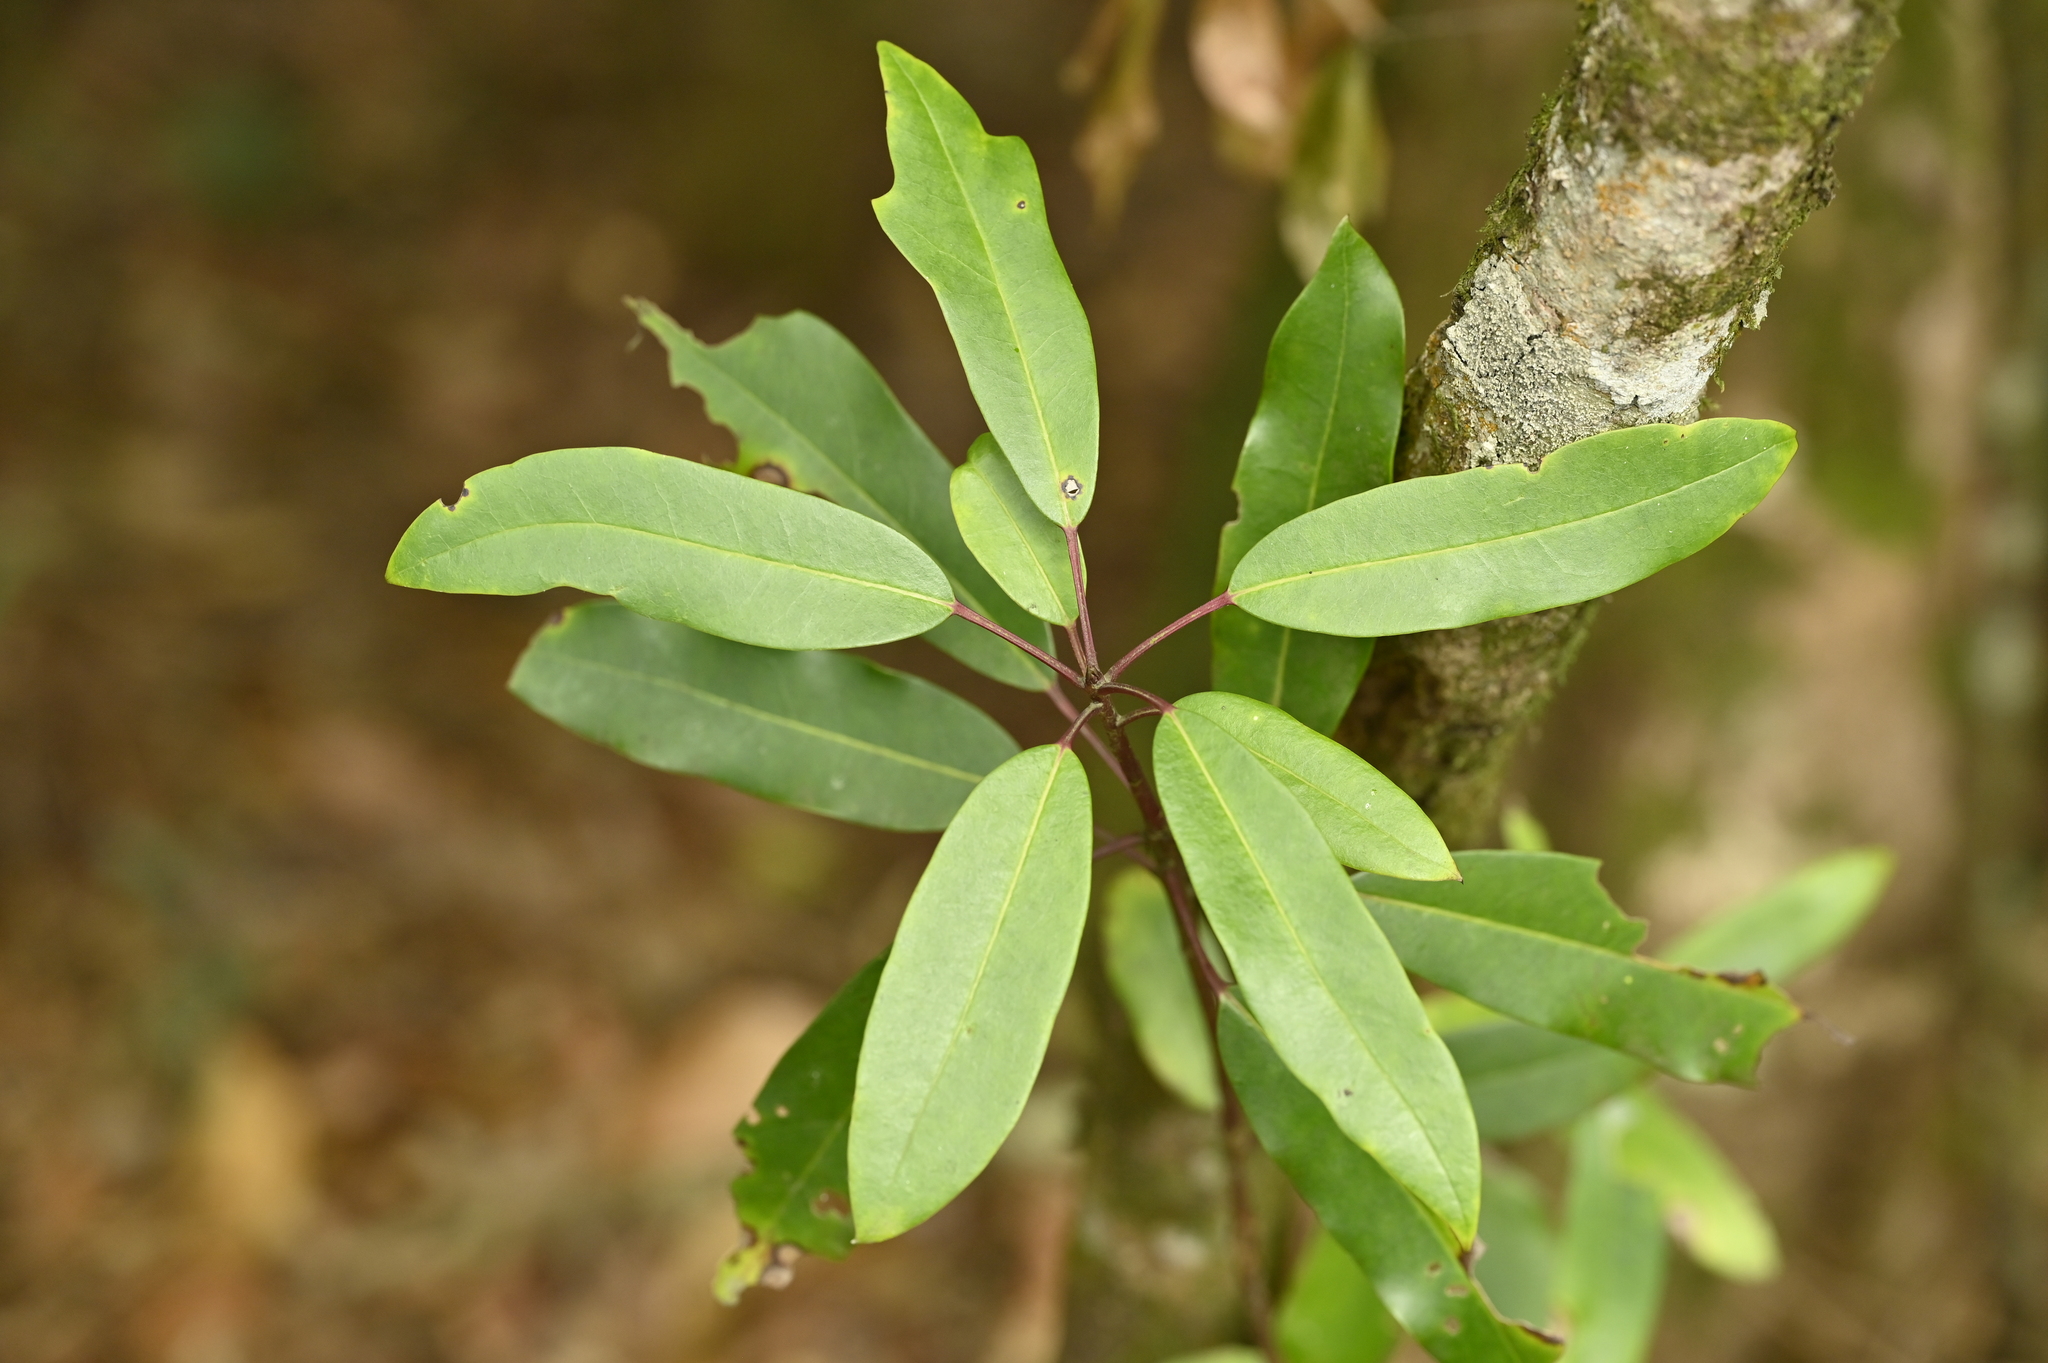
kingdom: Plantae
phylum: Tracheophyta
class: Magnoliopsida
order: Saxifragales
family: Daphniphyllaceae
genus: Daphniphyllum
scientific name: Daphniphyllum pentandrum
